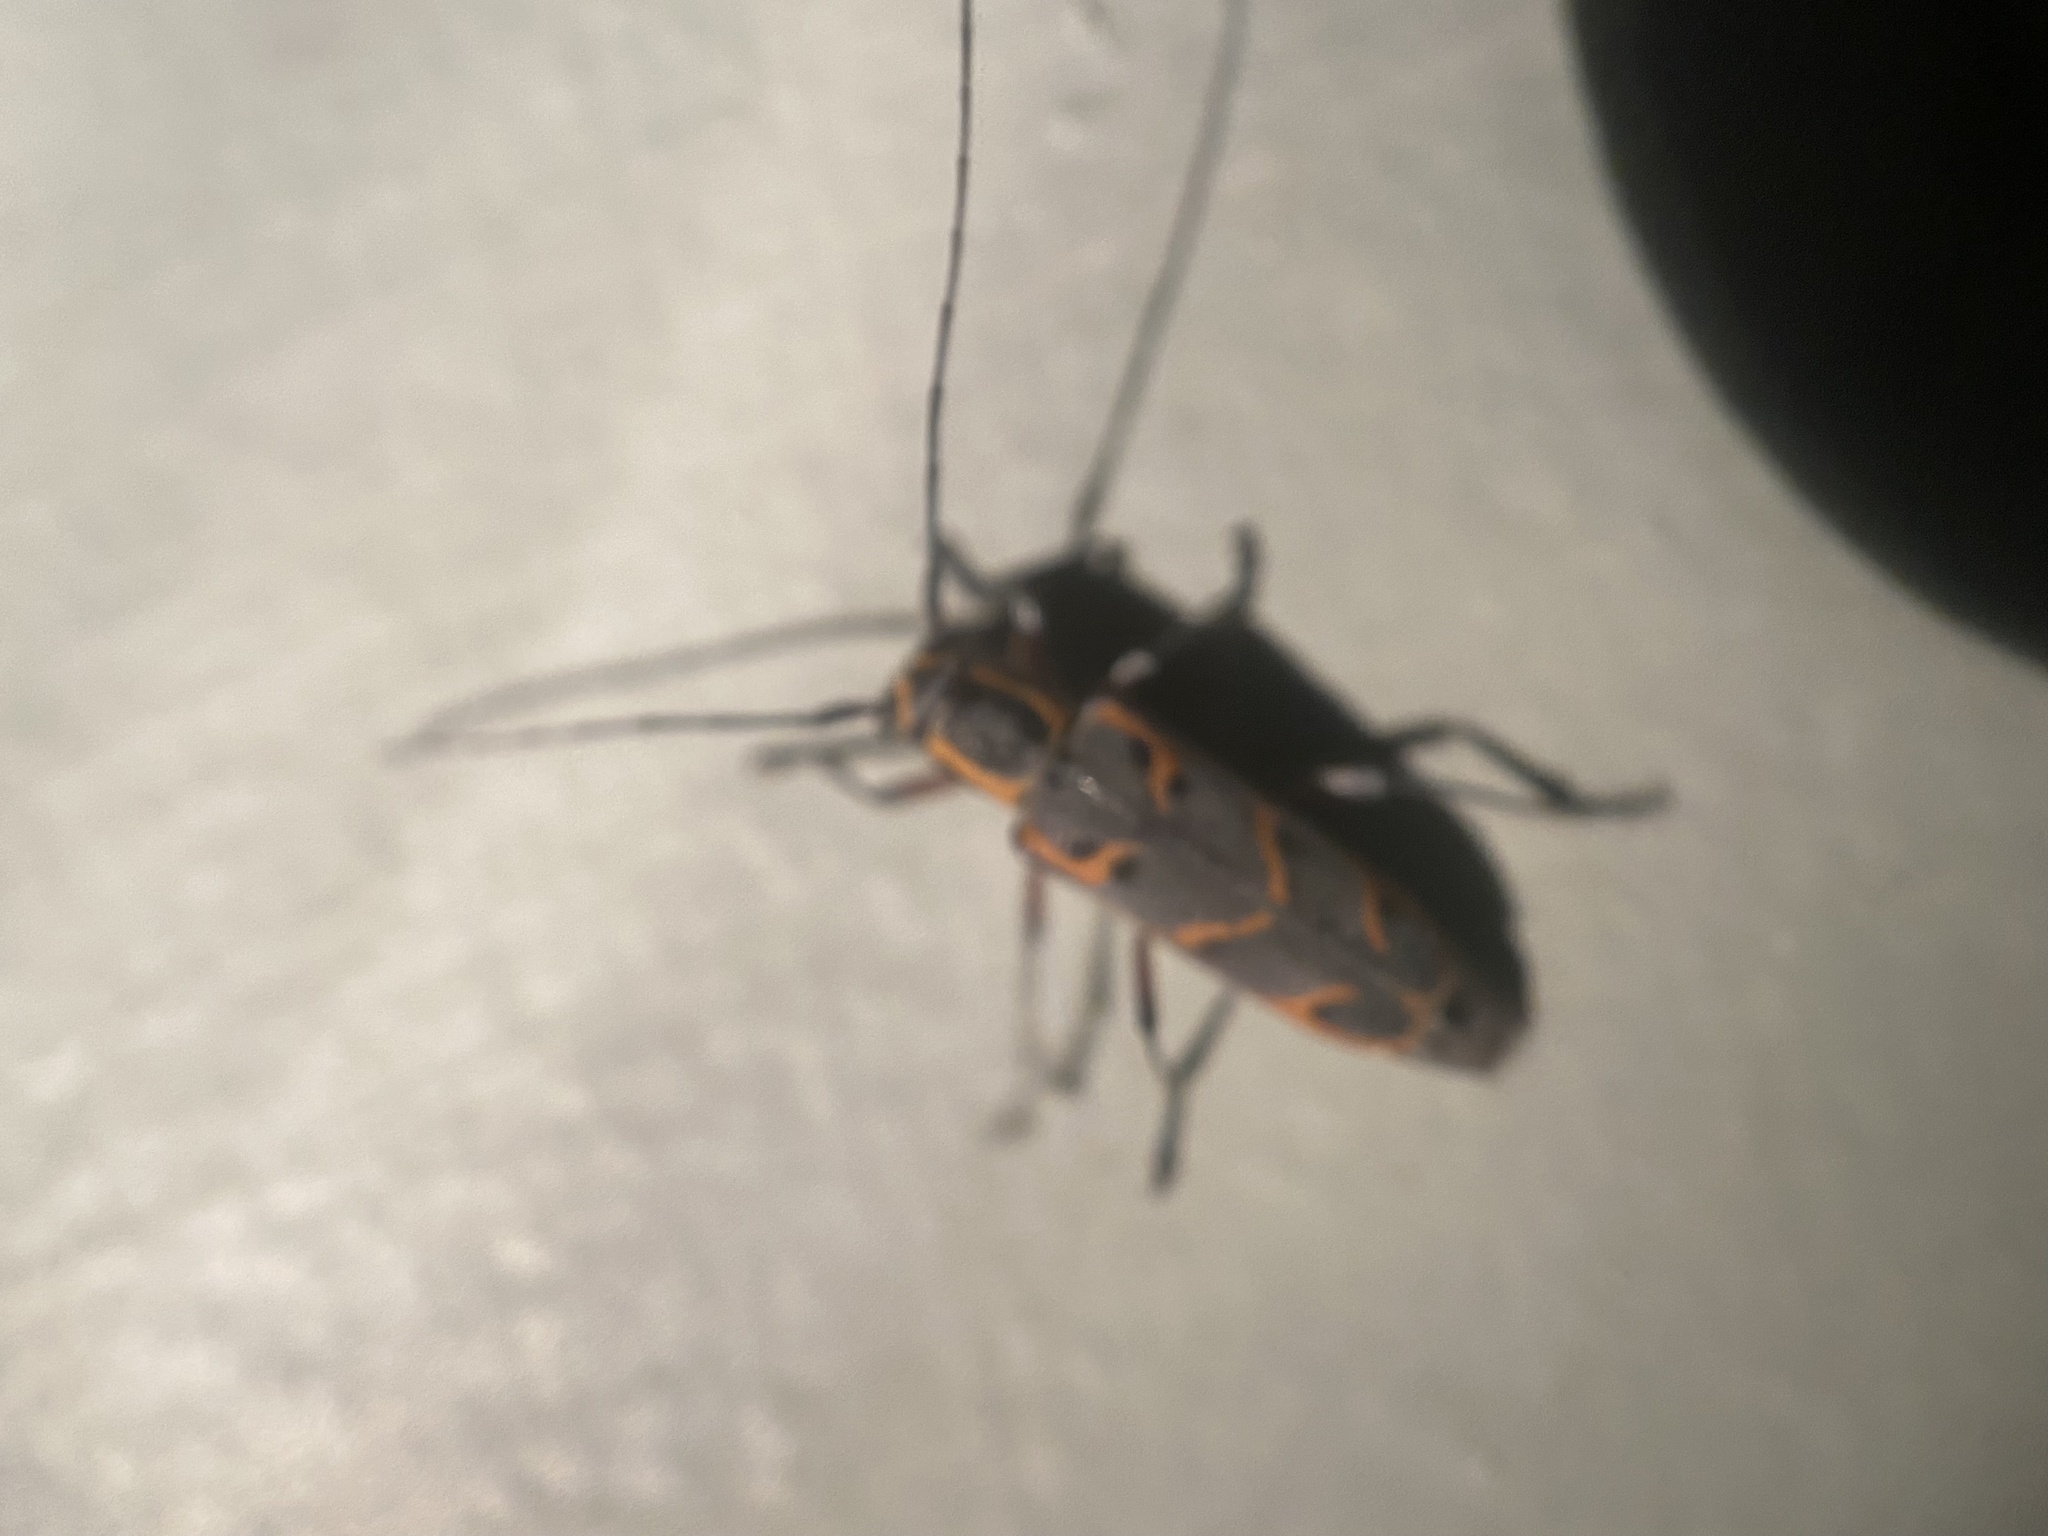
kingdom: Animalia
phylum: Arthropoda
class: Insecta
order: Coleoptera
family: Cerambycidae
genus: Saperda
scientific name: Saperda tridentata
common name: Elm borer
